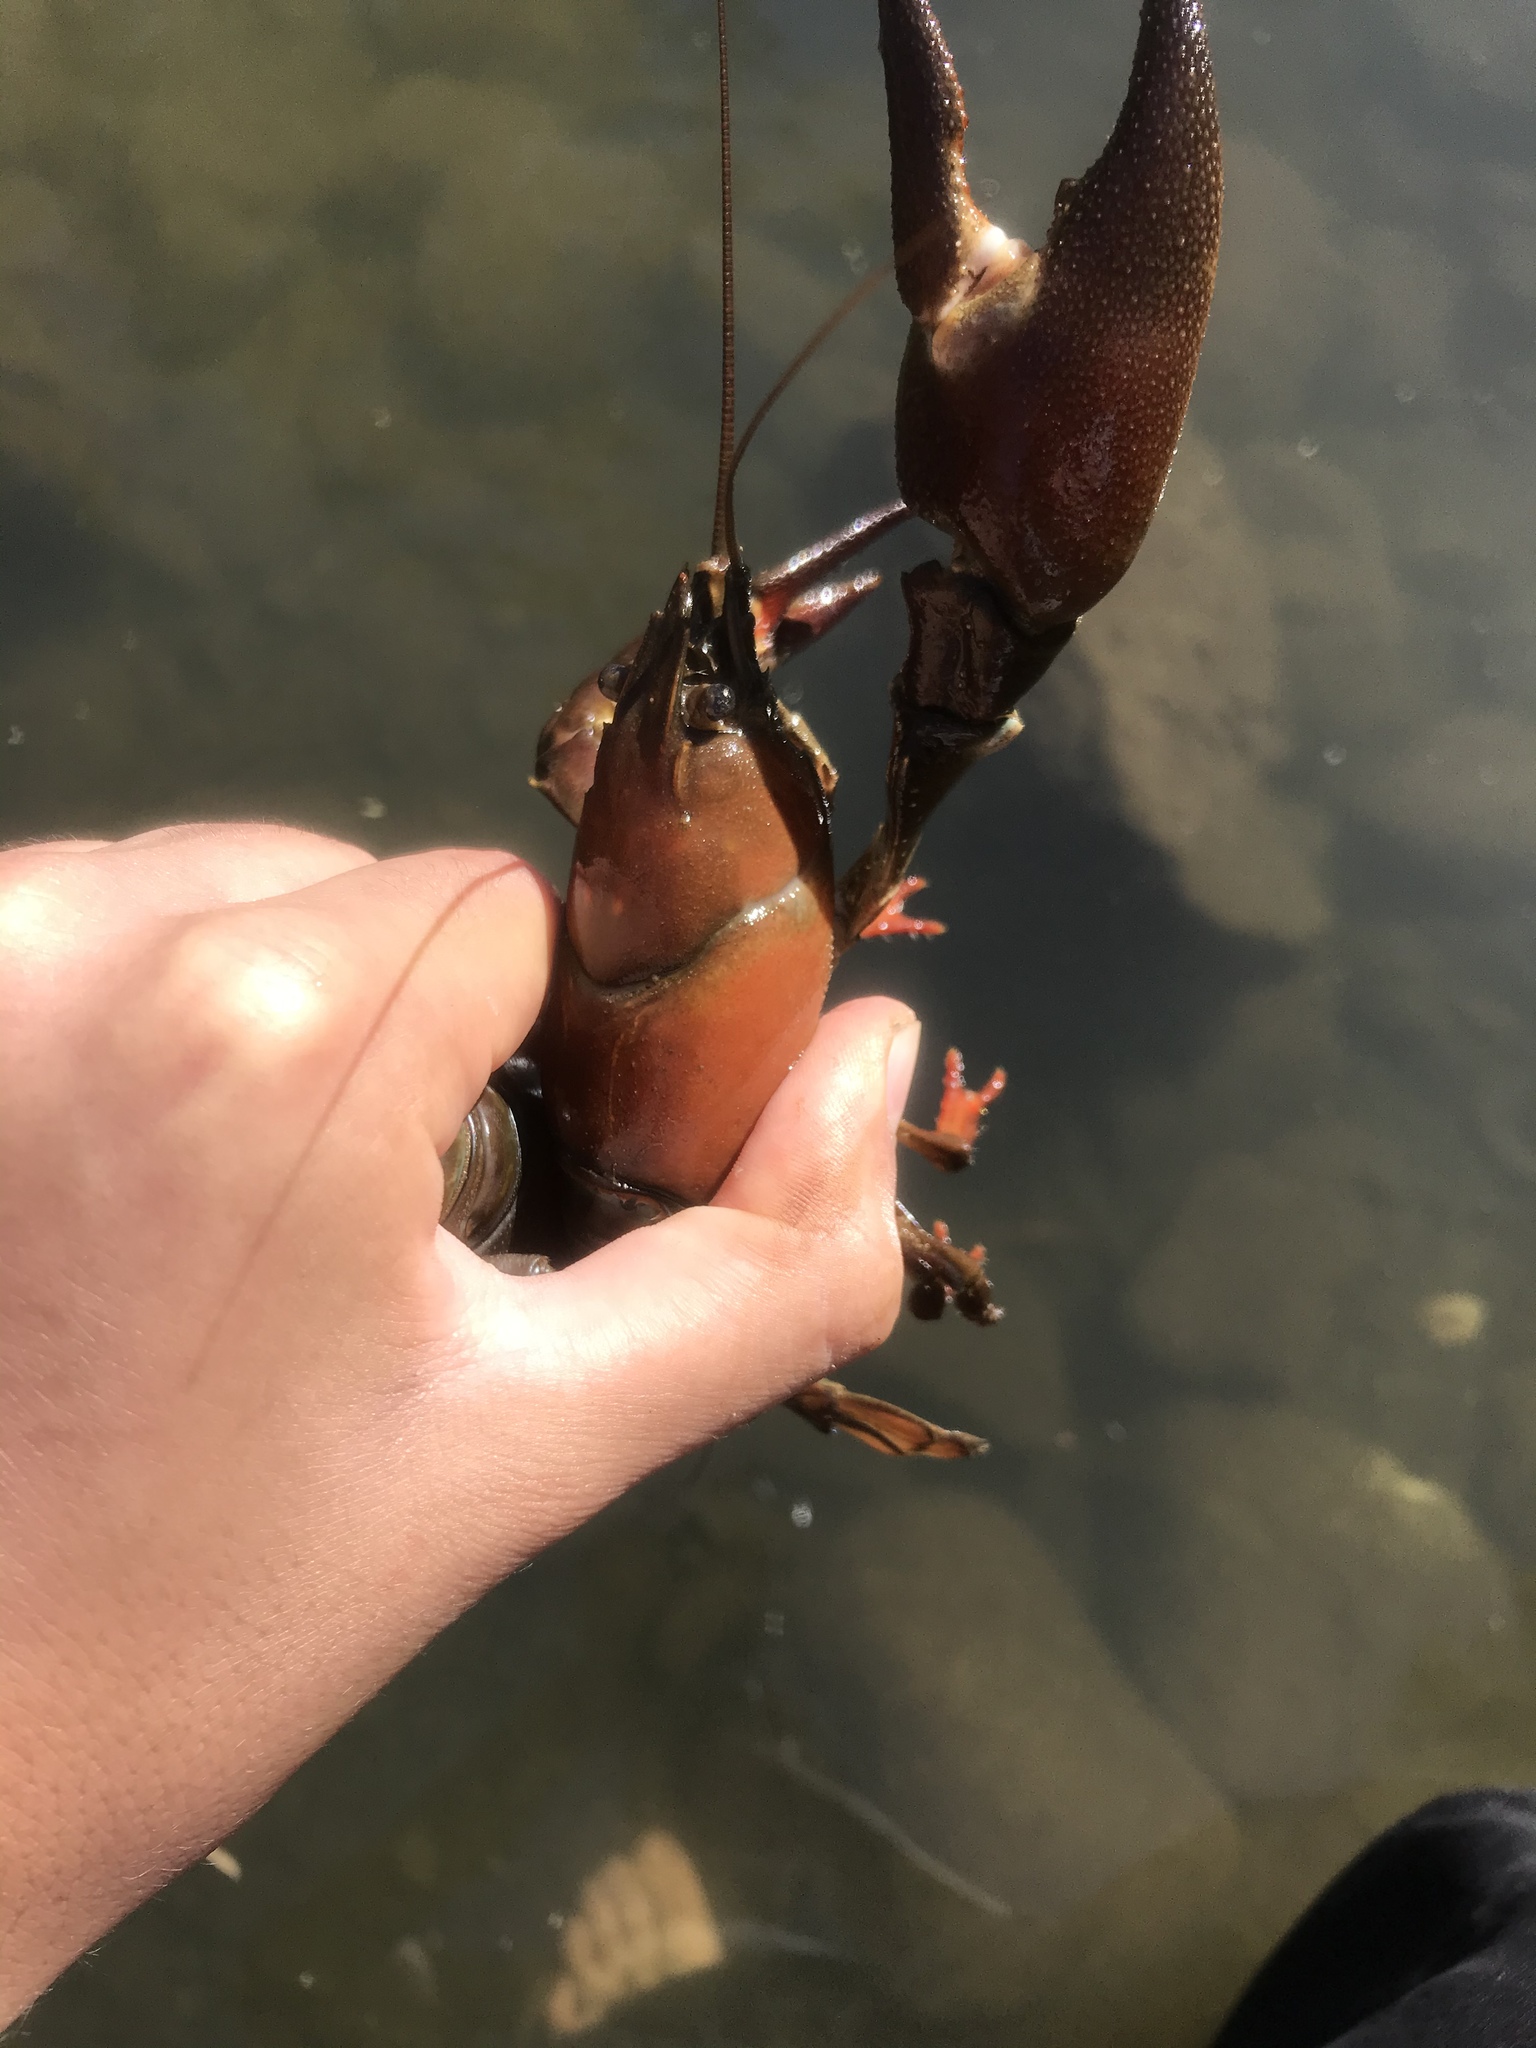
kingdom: Animalia
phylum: Arthropoda
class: Malacostraca
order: Decapoda
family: Astacidae
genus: Pacifastacus
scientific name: Pacifastacus leniusculus
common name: Signal crayfish
